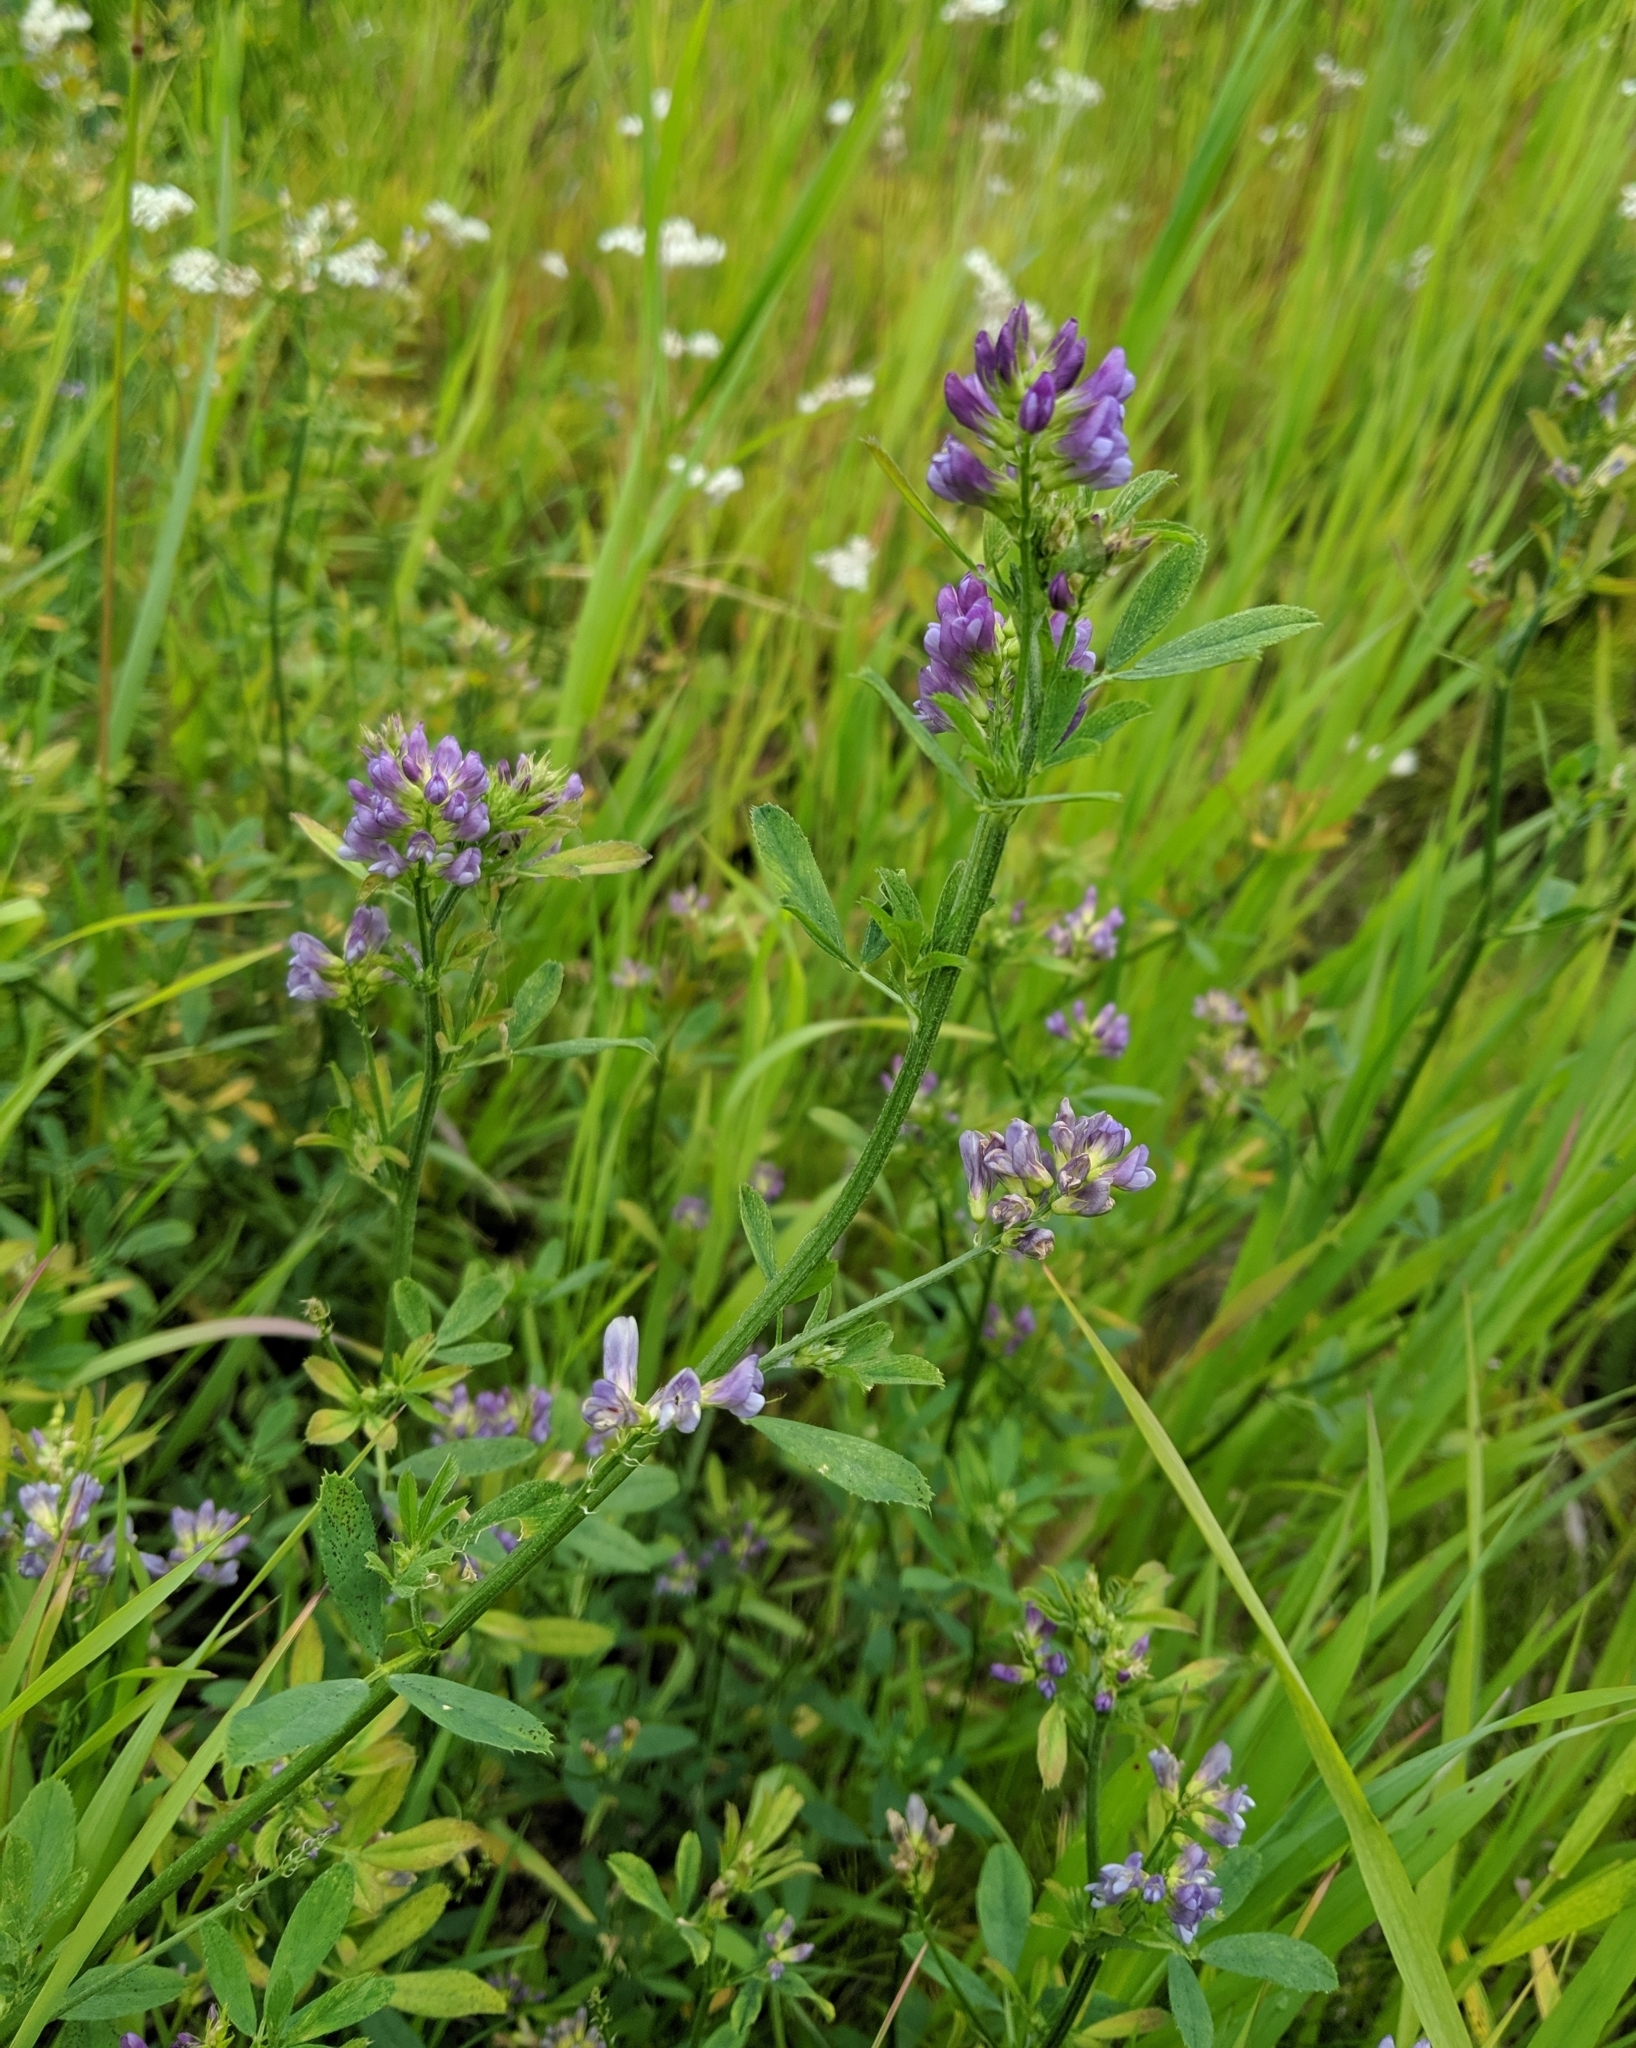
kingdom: Plantae
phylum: Tracheophyta
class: Magnoliopsida
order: Fabales
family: Fabaceae
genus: Medicago
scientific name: Medicago sativa
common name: Alfalfa
